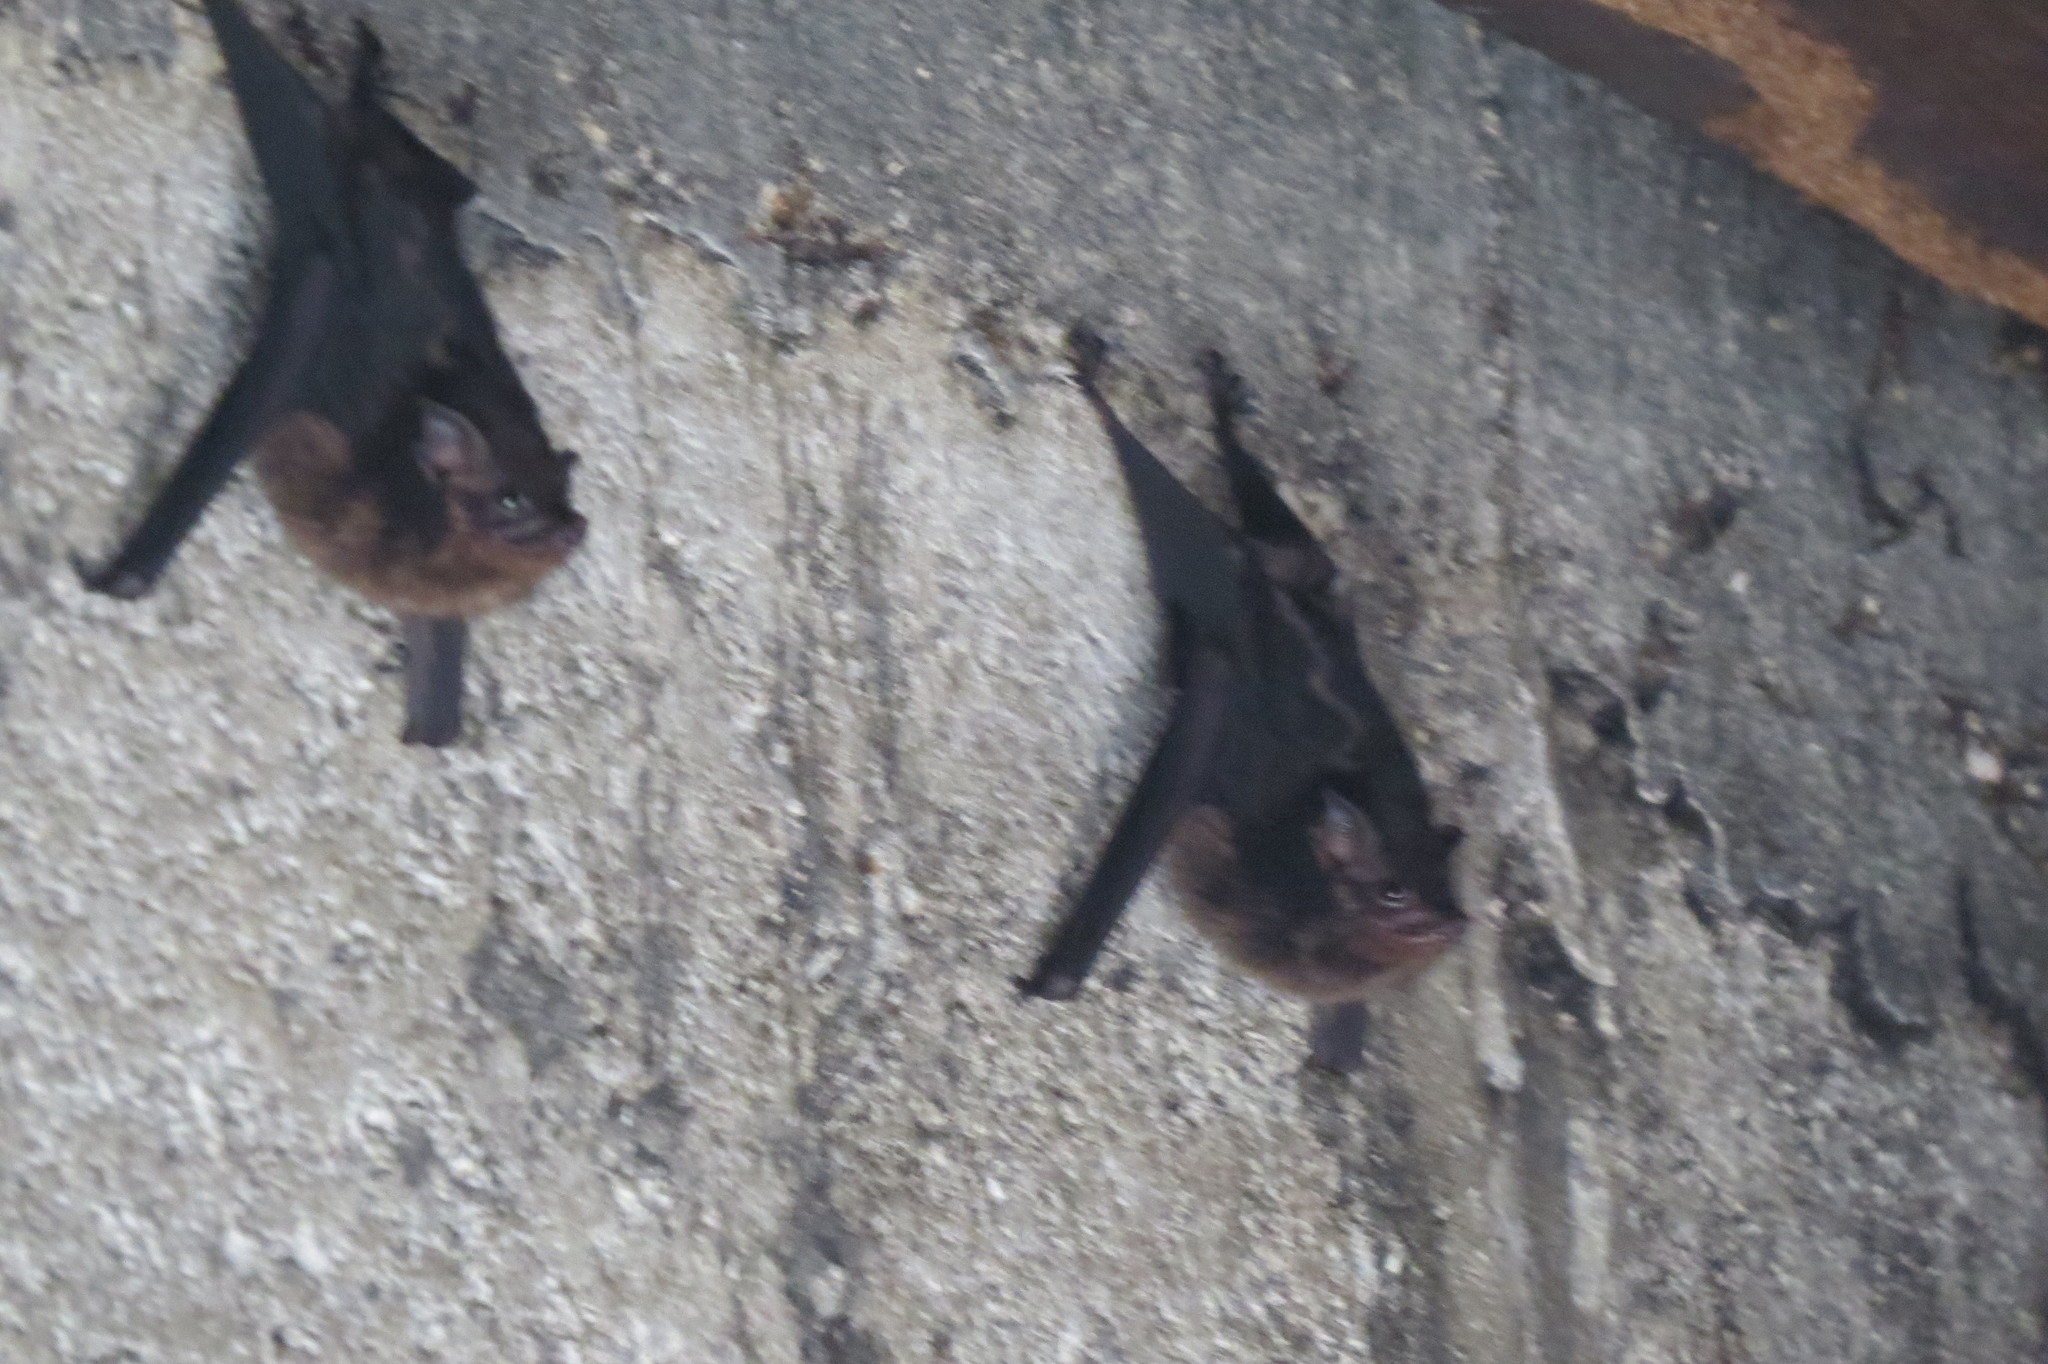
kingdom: Animalia
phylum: Chordata
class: Mammalia
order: Chiroptera
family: Emballonuridae
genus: Saccopteryx
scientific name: Saccopteryx bilineata
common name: Greater sac-winged bat
